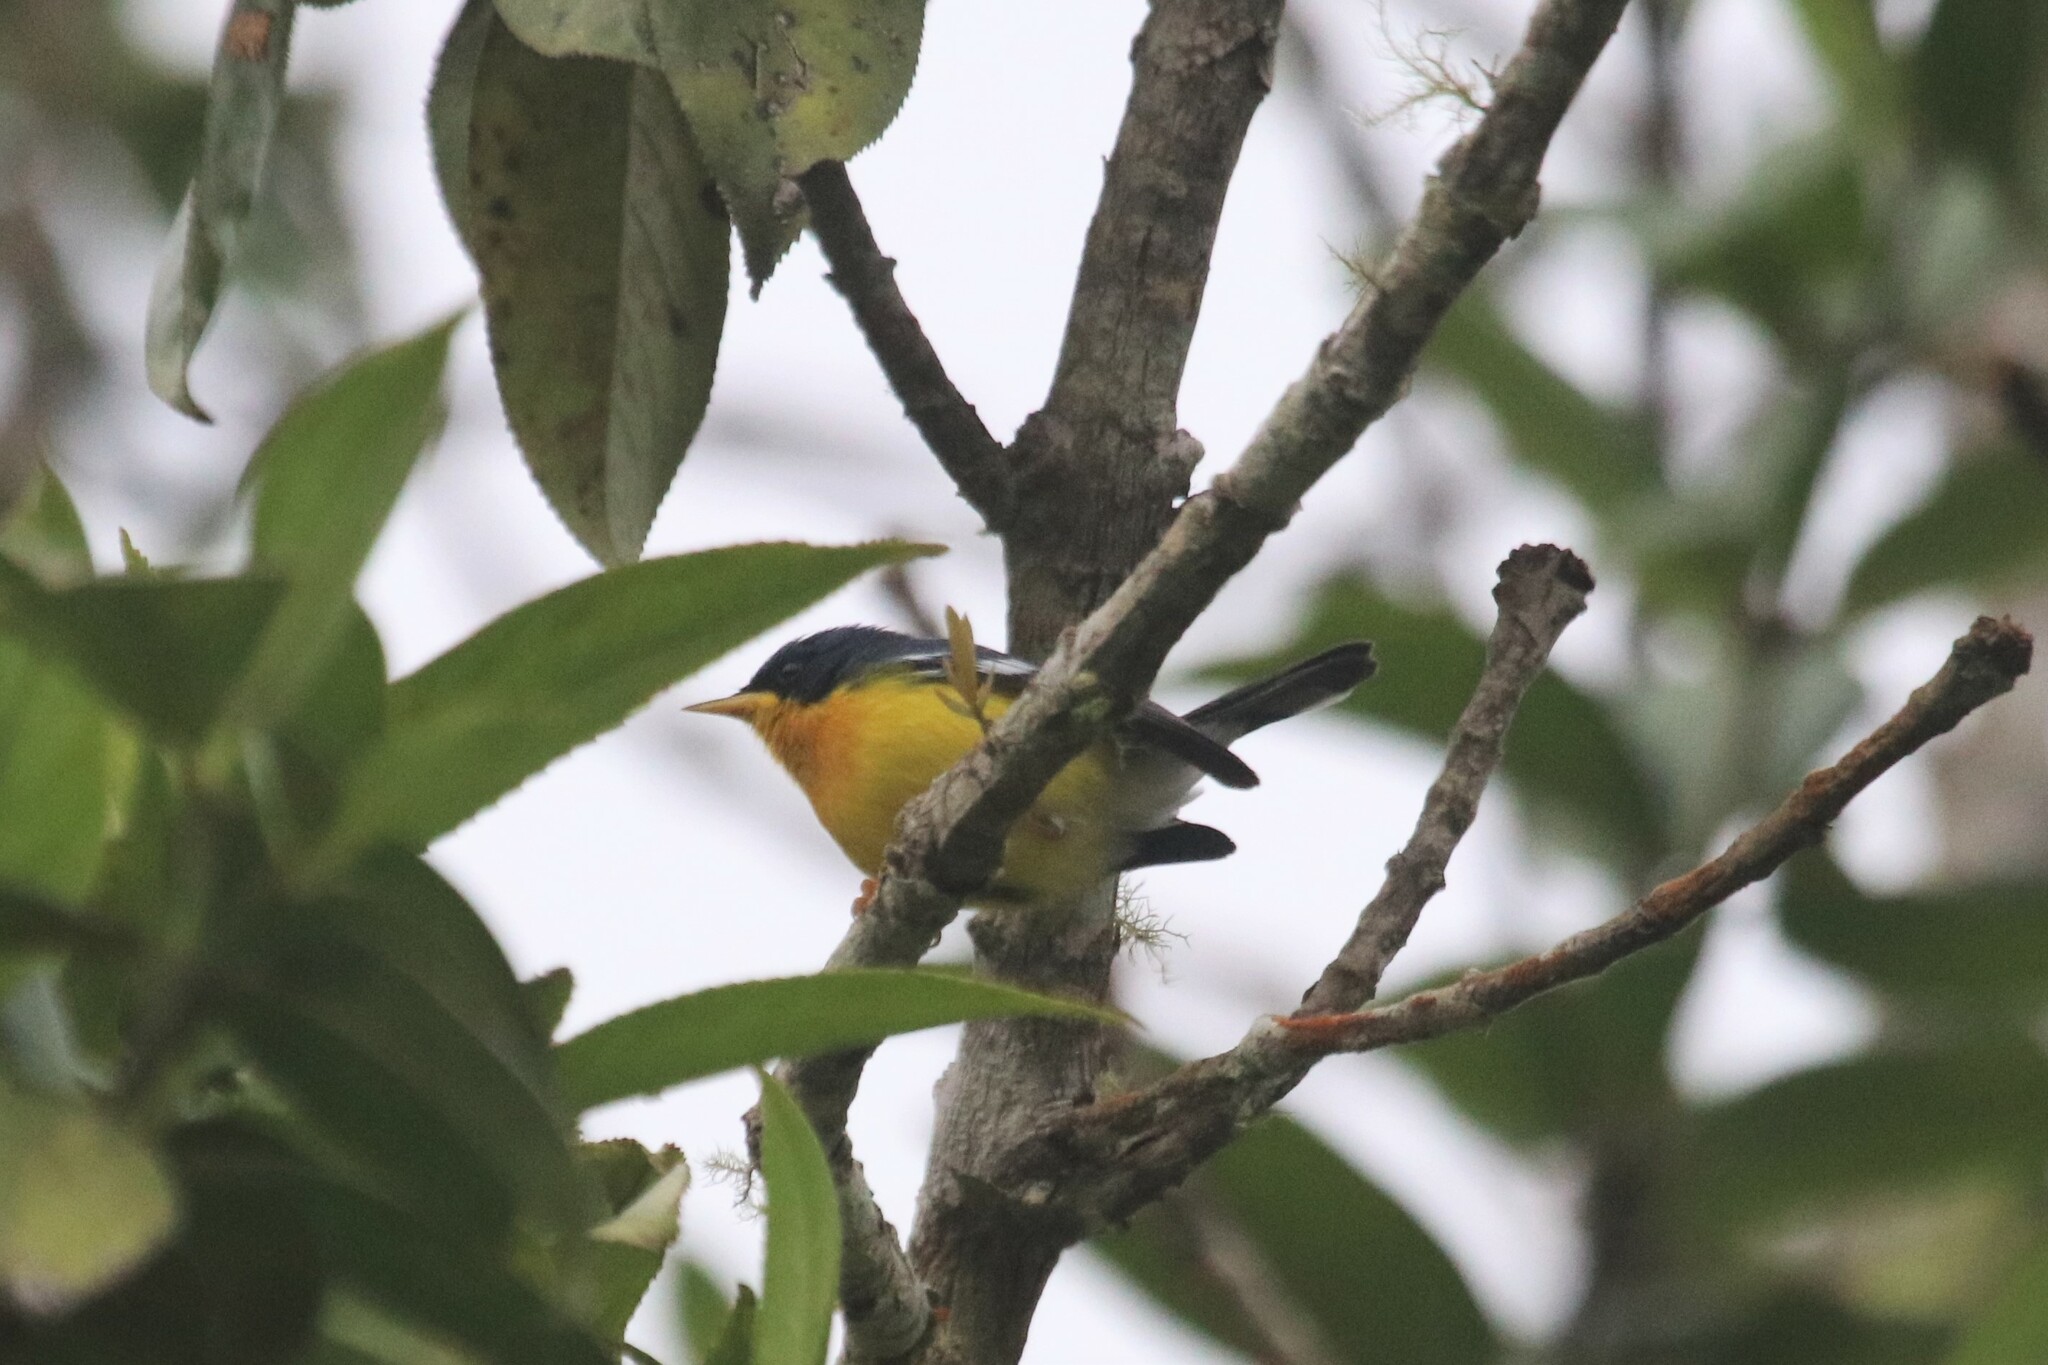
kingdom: Animalia
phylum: Chordata
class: Aves
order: Passeriformes
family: Parulidae
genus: Setophaga
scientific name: Setophaga pitiayumi
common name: Tropical parula
